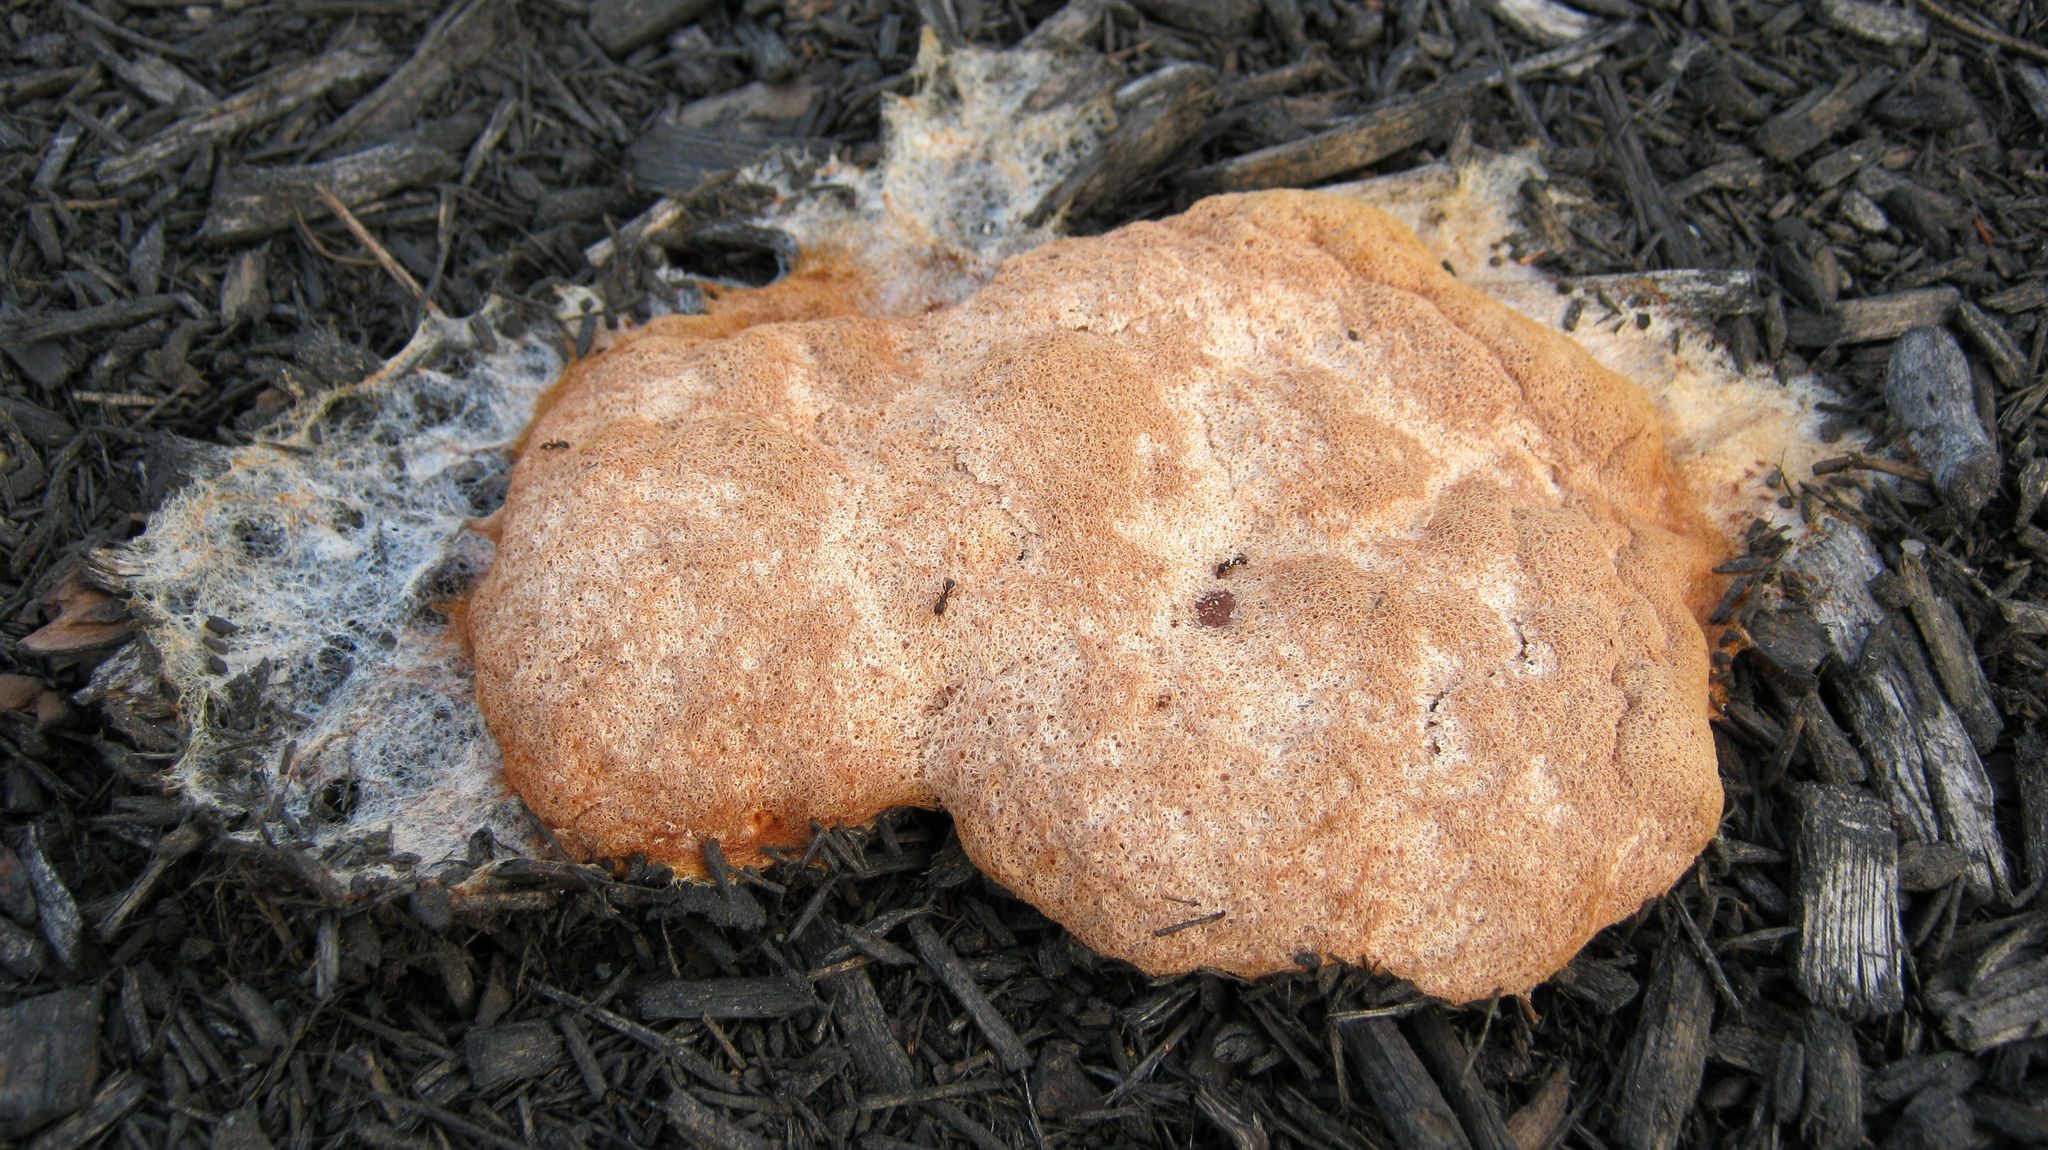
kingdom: Protozoa
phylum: Mycetozoa
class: Myxomycetes
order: Physarales
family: Physaraceae
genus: Fuligo
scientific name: Fuligo septica
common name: Dog vomit slime mold
